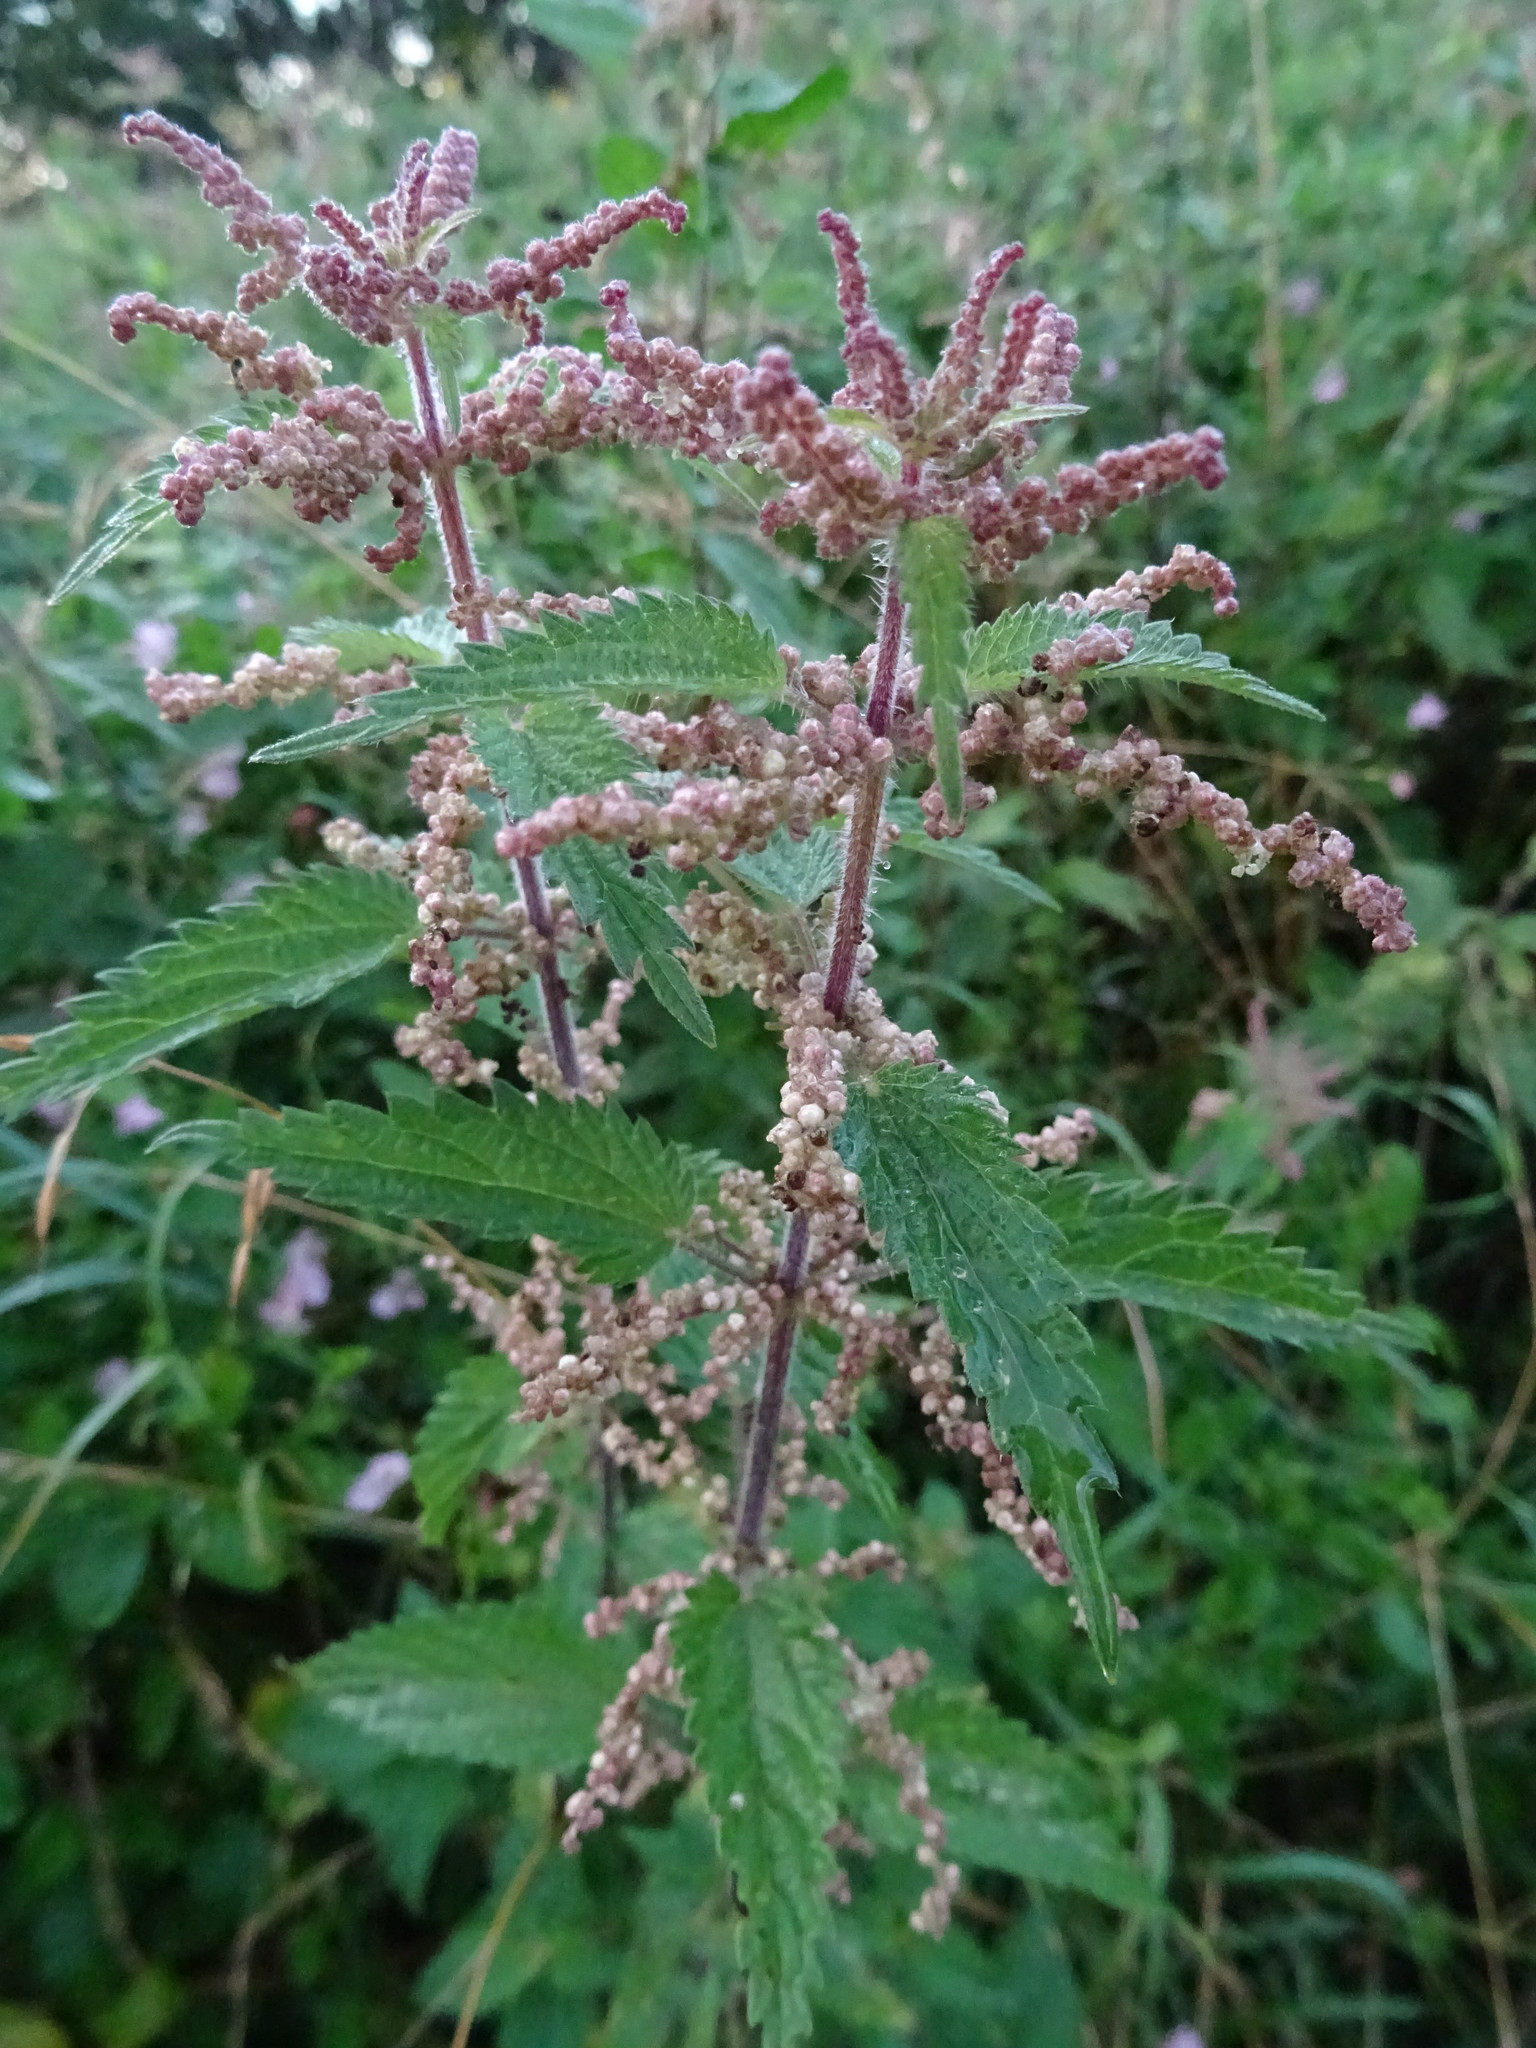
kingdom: Plantae
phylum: Tracheophyta
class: Magnoliopsida
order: Rosales
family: Urticaceae
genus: Urtica
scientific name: Urtica dioica
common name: Common nettle
